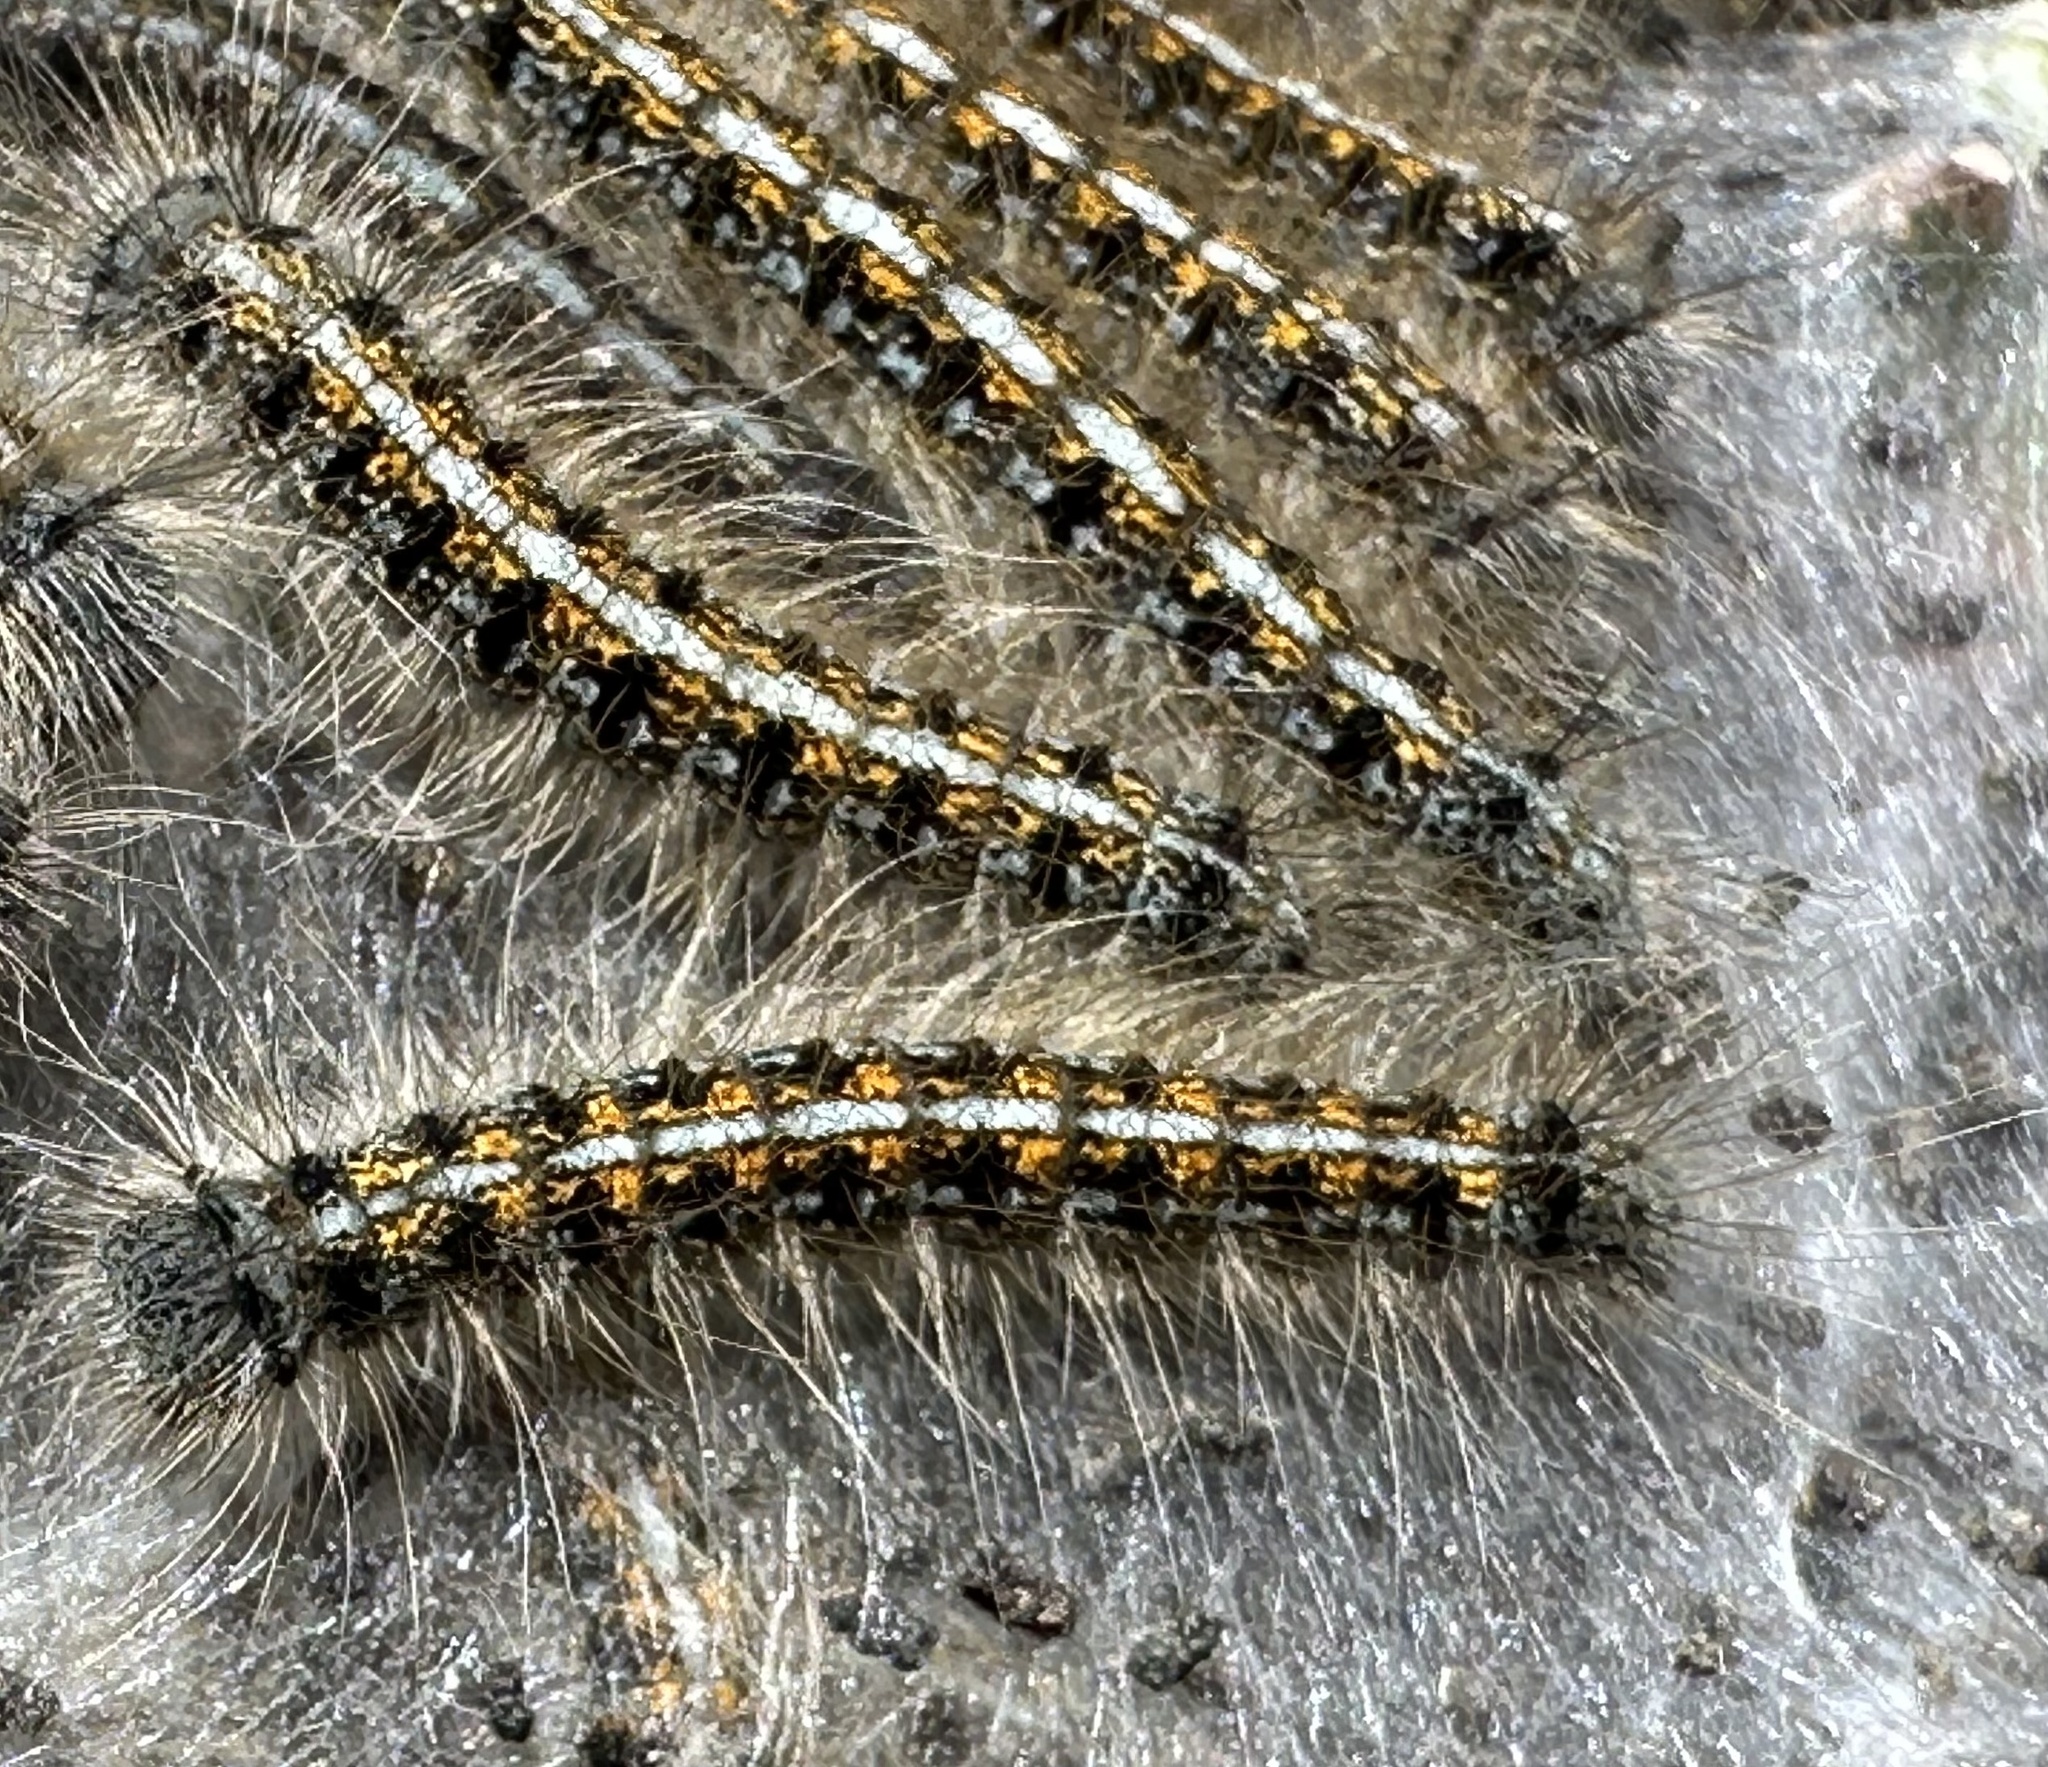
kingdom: Animalia
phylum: Arthropoda
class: Insecta
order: Lepidoptera
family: Lasiocampidae
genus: Malacosoma
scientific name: Malacosoma californica
